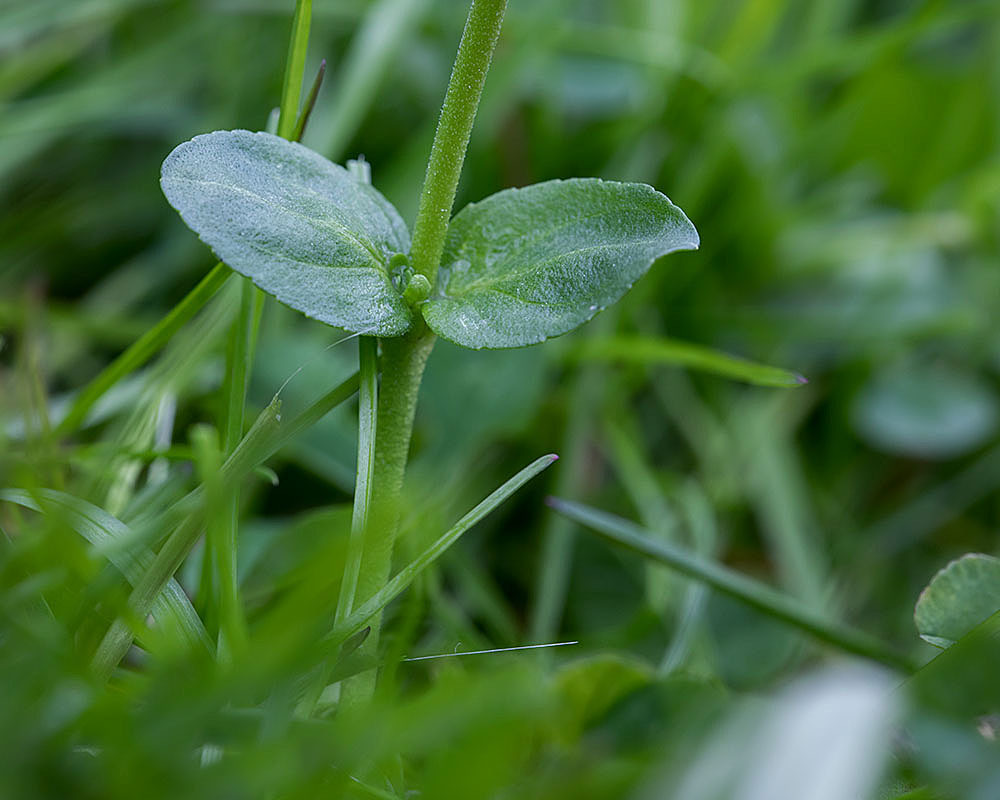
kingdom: Plantae
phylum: Tracheophyta
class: Magnoliopsida
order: Lamiales
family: Plantaginaceae
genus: Veronica
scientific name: Veronica serpyllifolia
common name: Thyme-leaved speedwell
